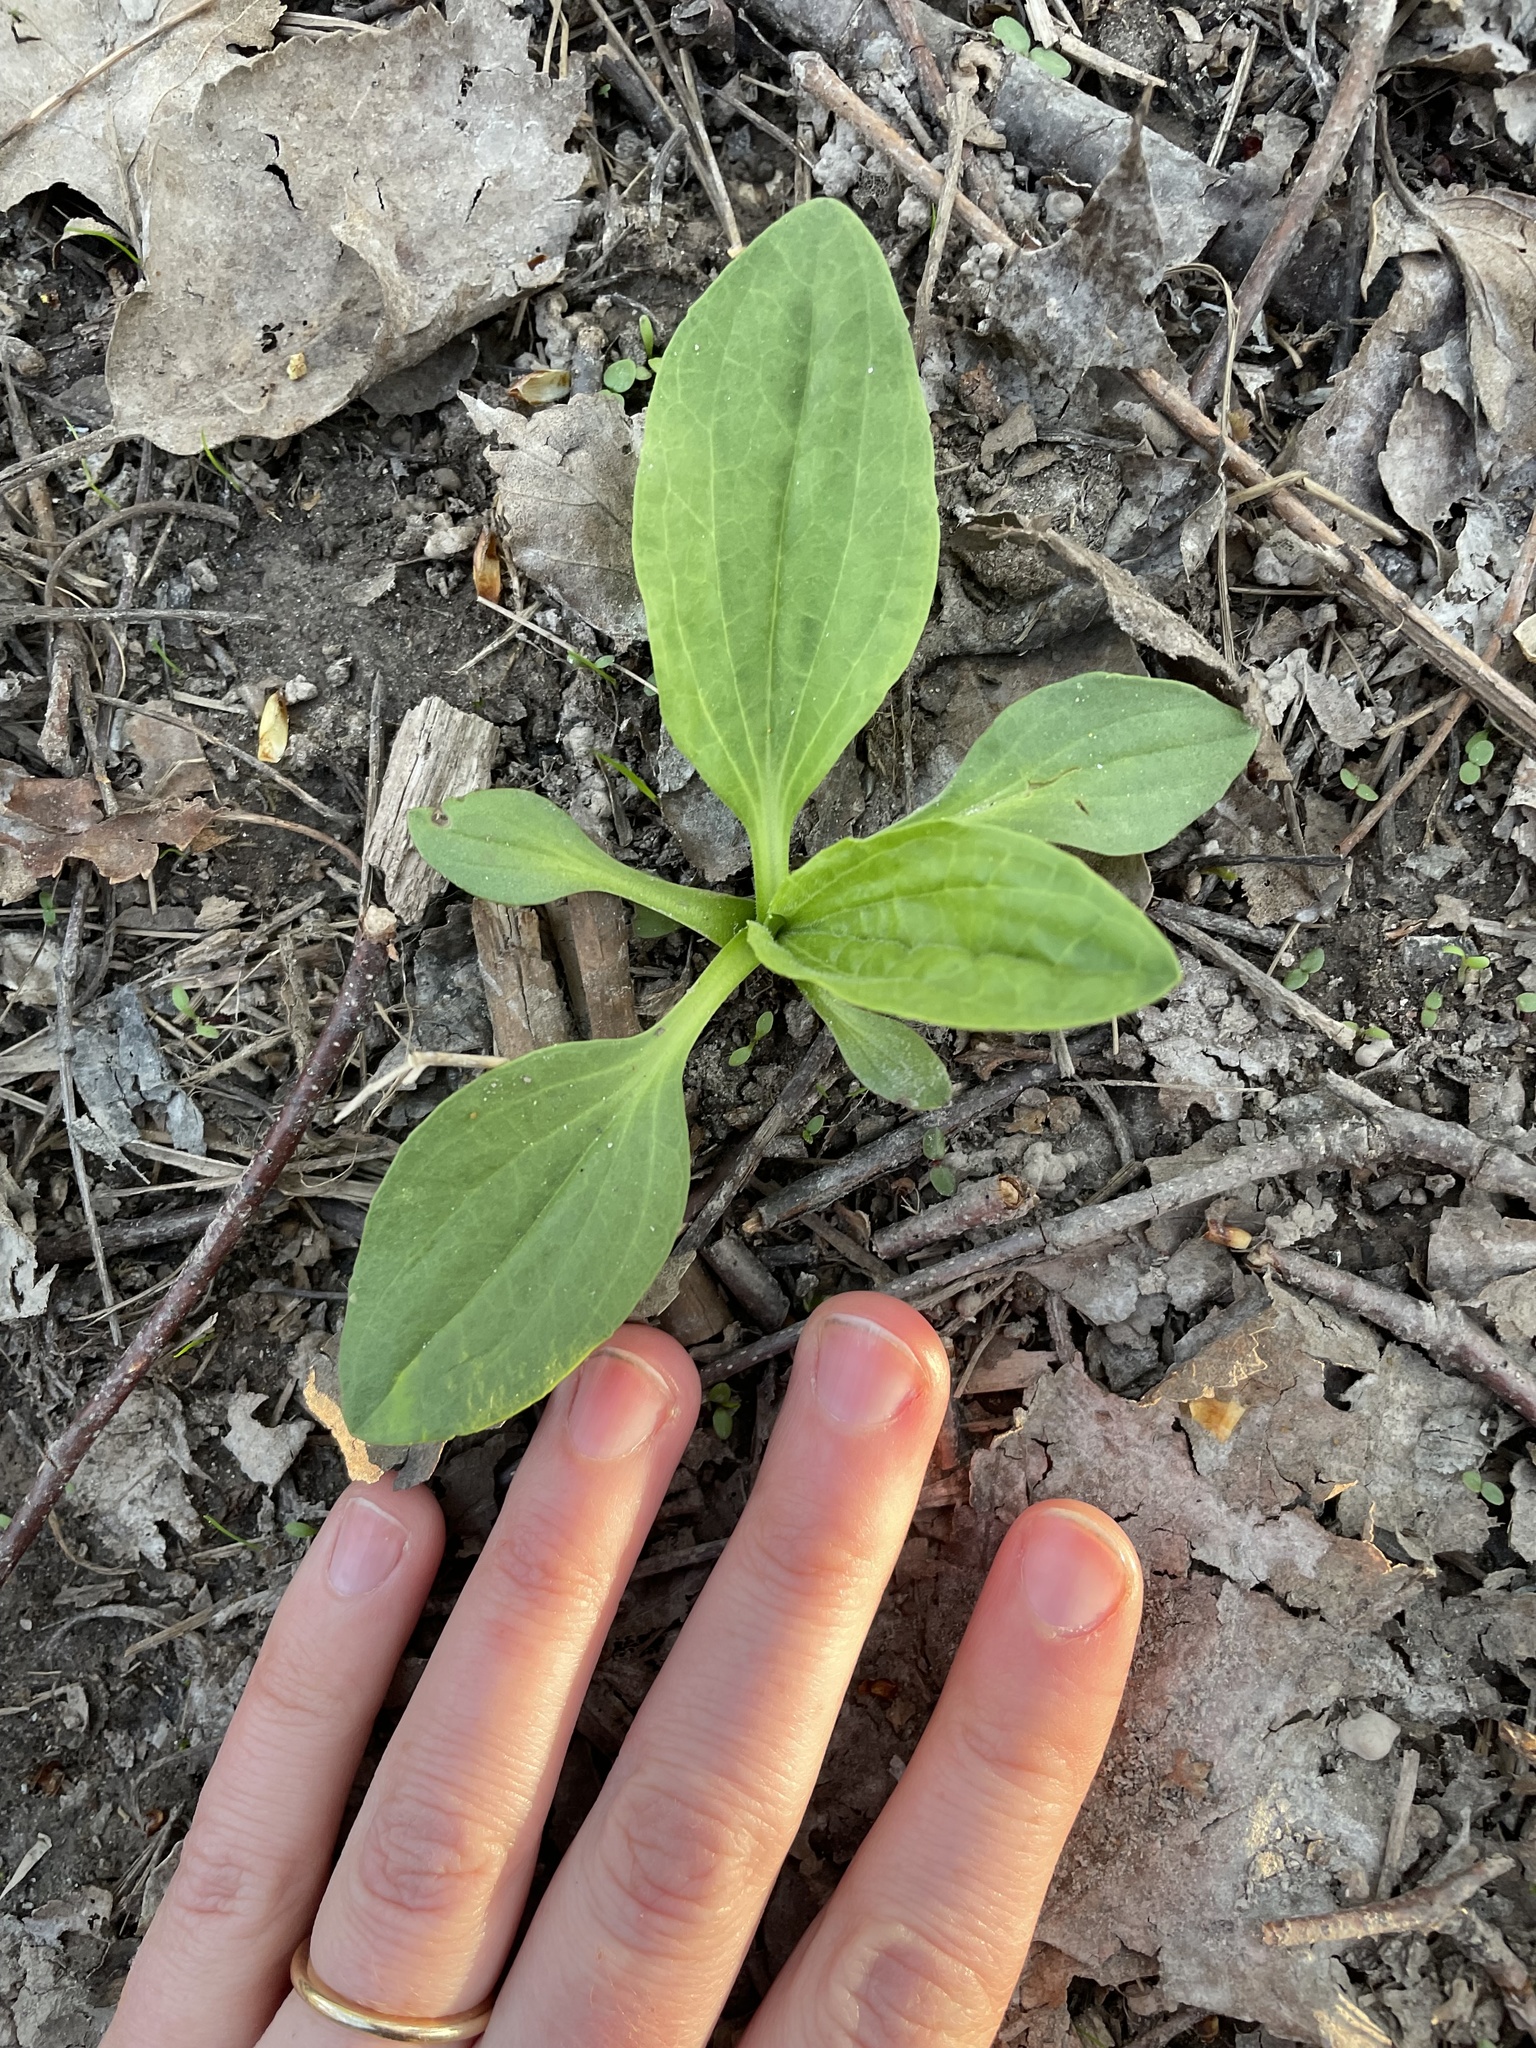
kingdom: Plantae
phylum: Tracheophyta
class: Magnoliopsida
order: Lamiales
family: Plantaginaceae
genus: Plantago
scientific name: Plantago major
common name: Common plantain
